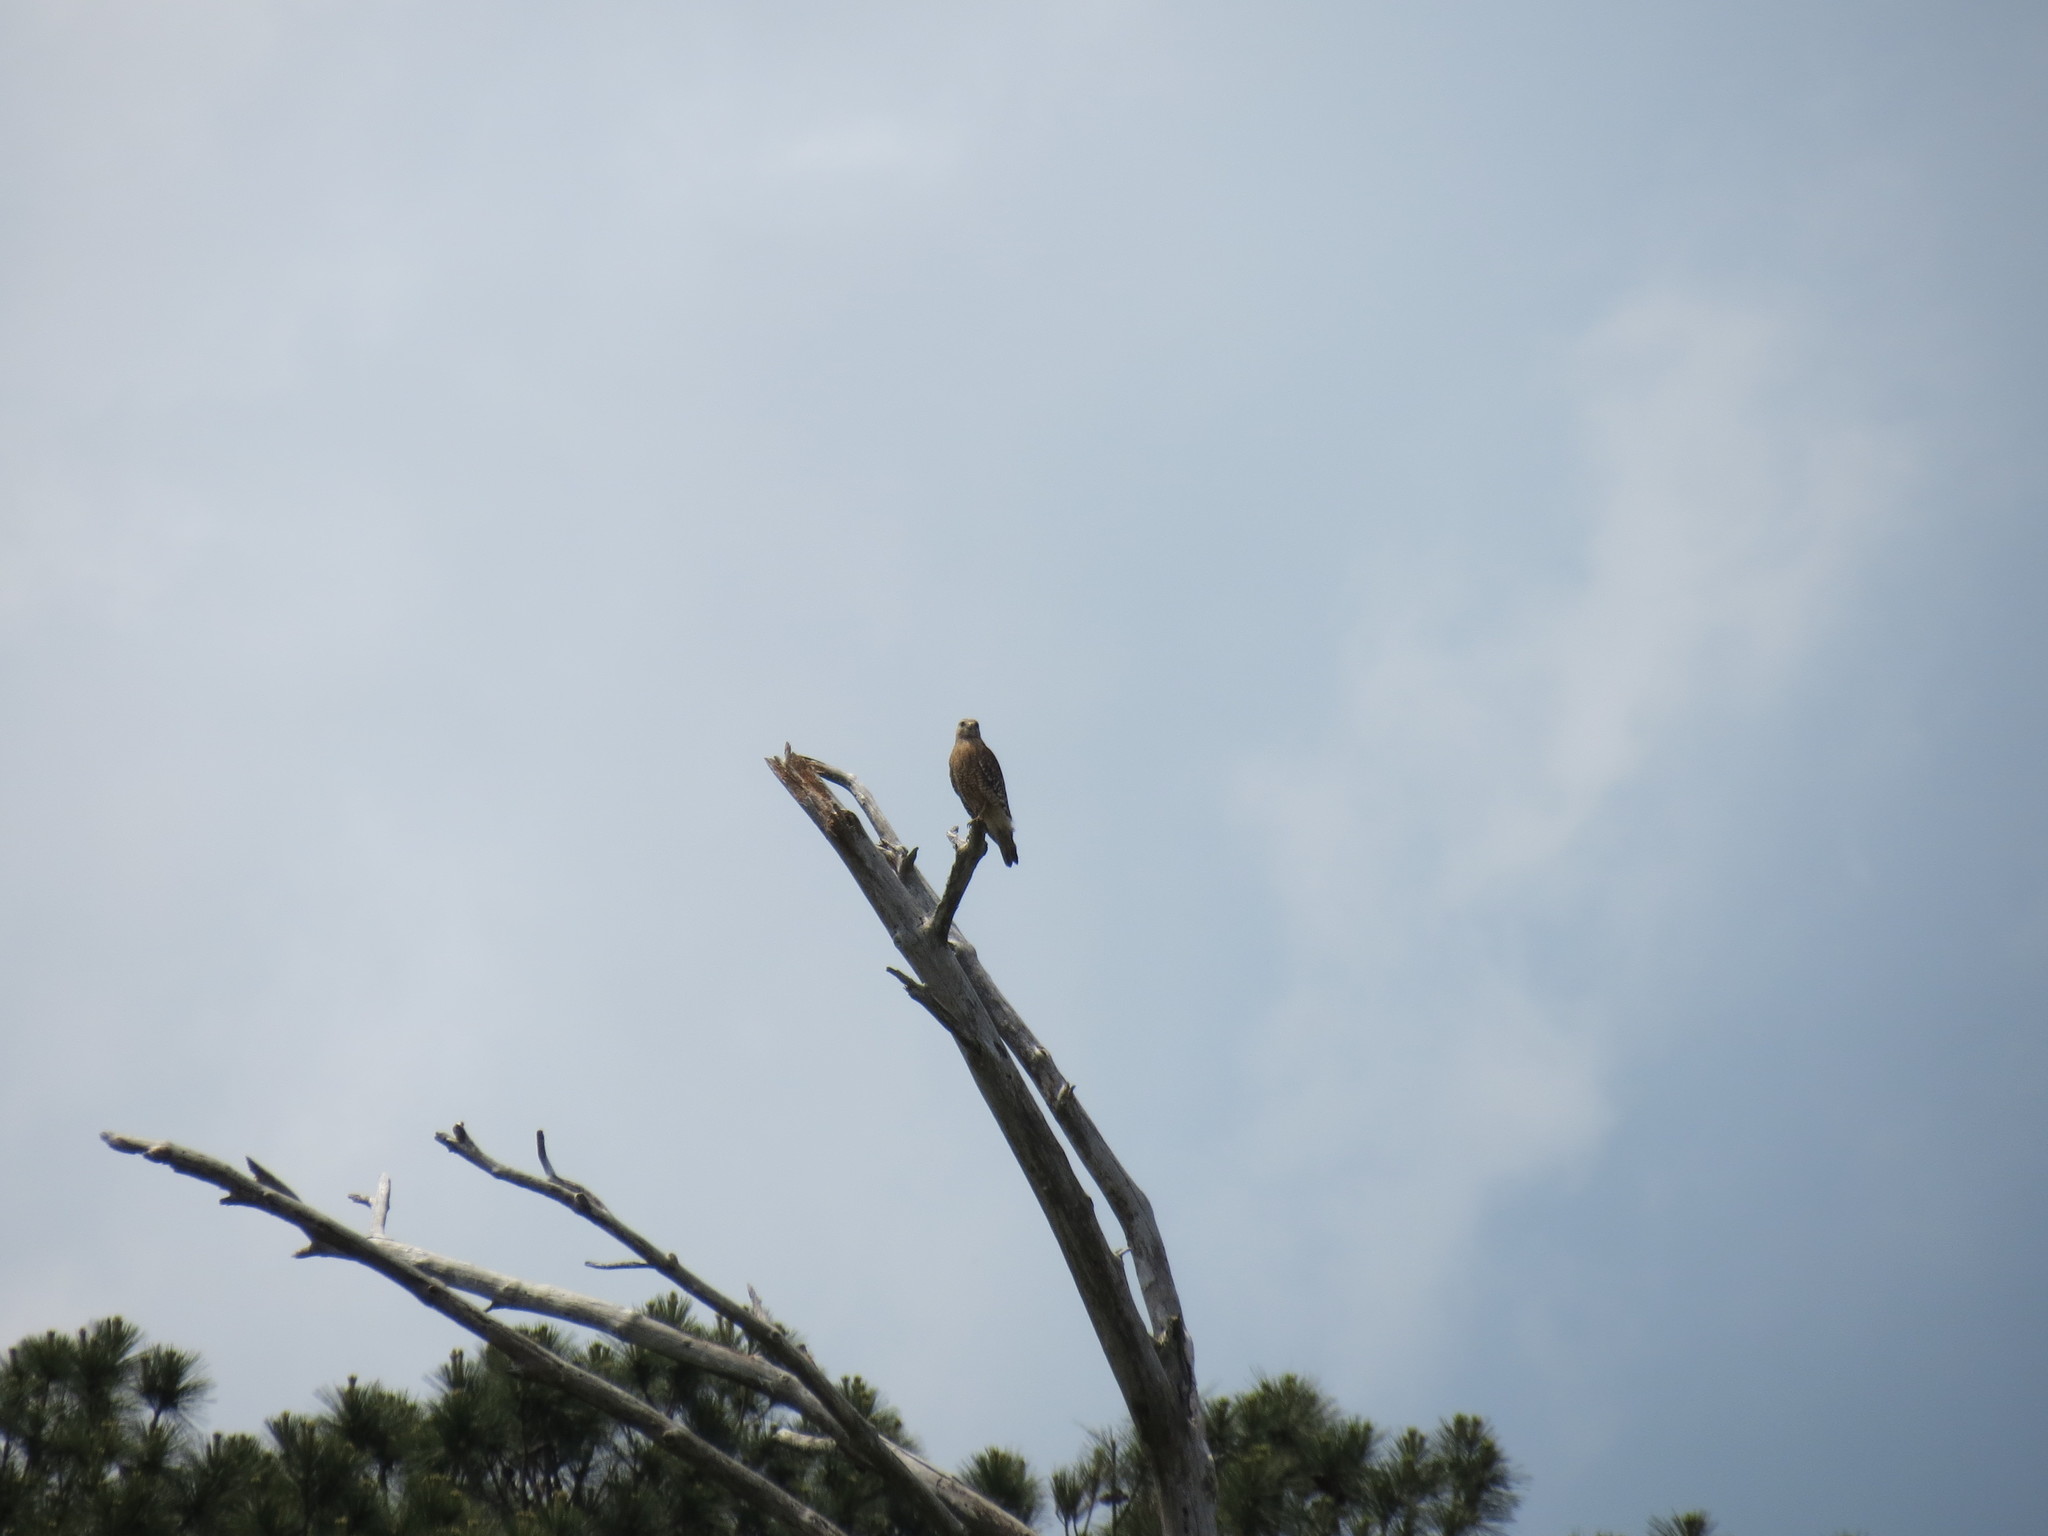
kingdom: Animalia
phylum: Chordata
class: Aves
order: Accipitriformes
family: Accipitridae
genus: Buteo
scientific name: Buteo lineatus
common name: Red-shouldered hawk
